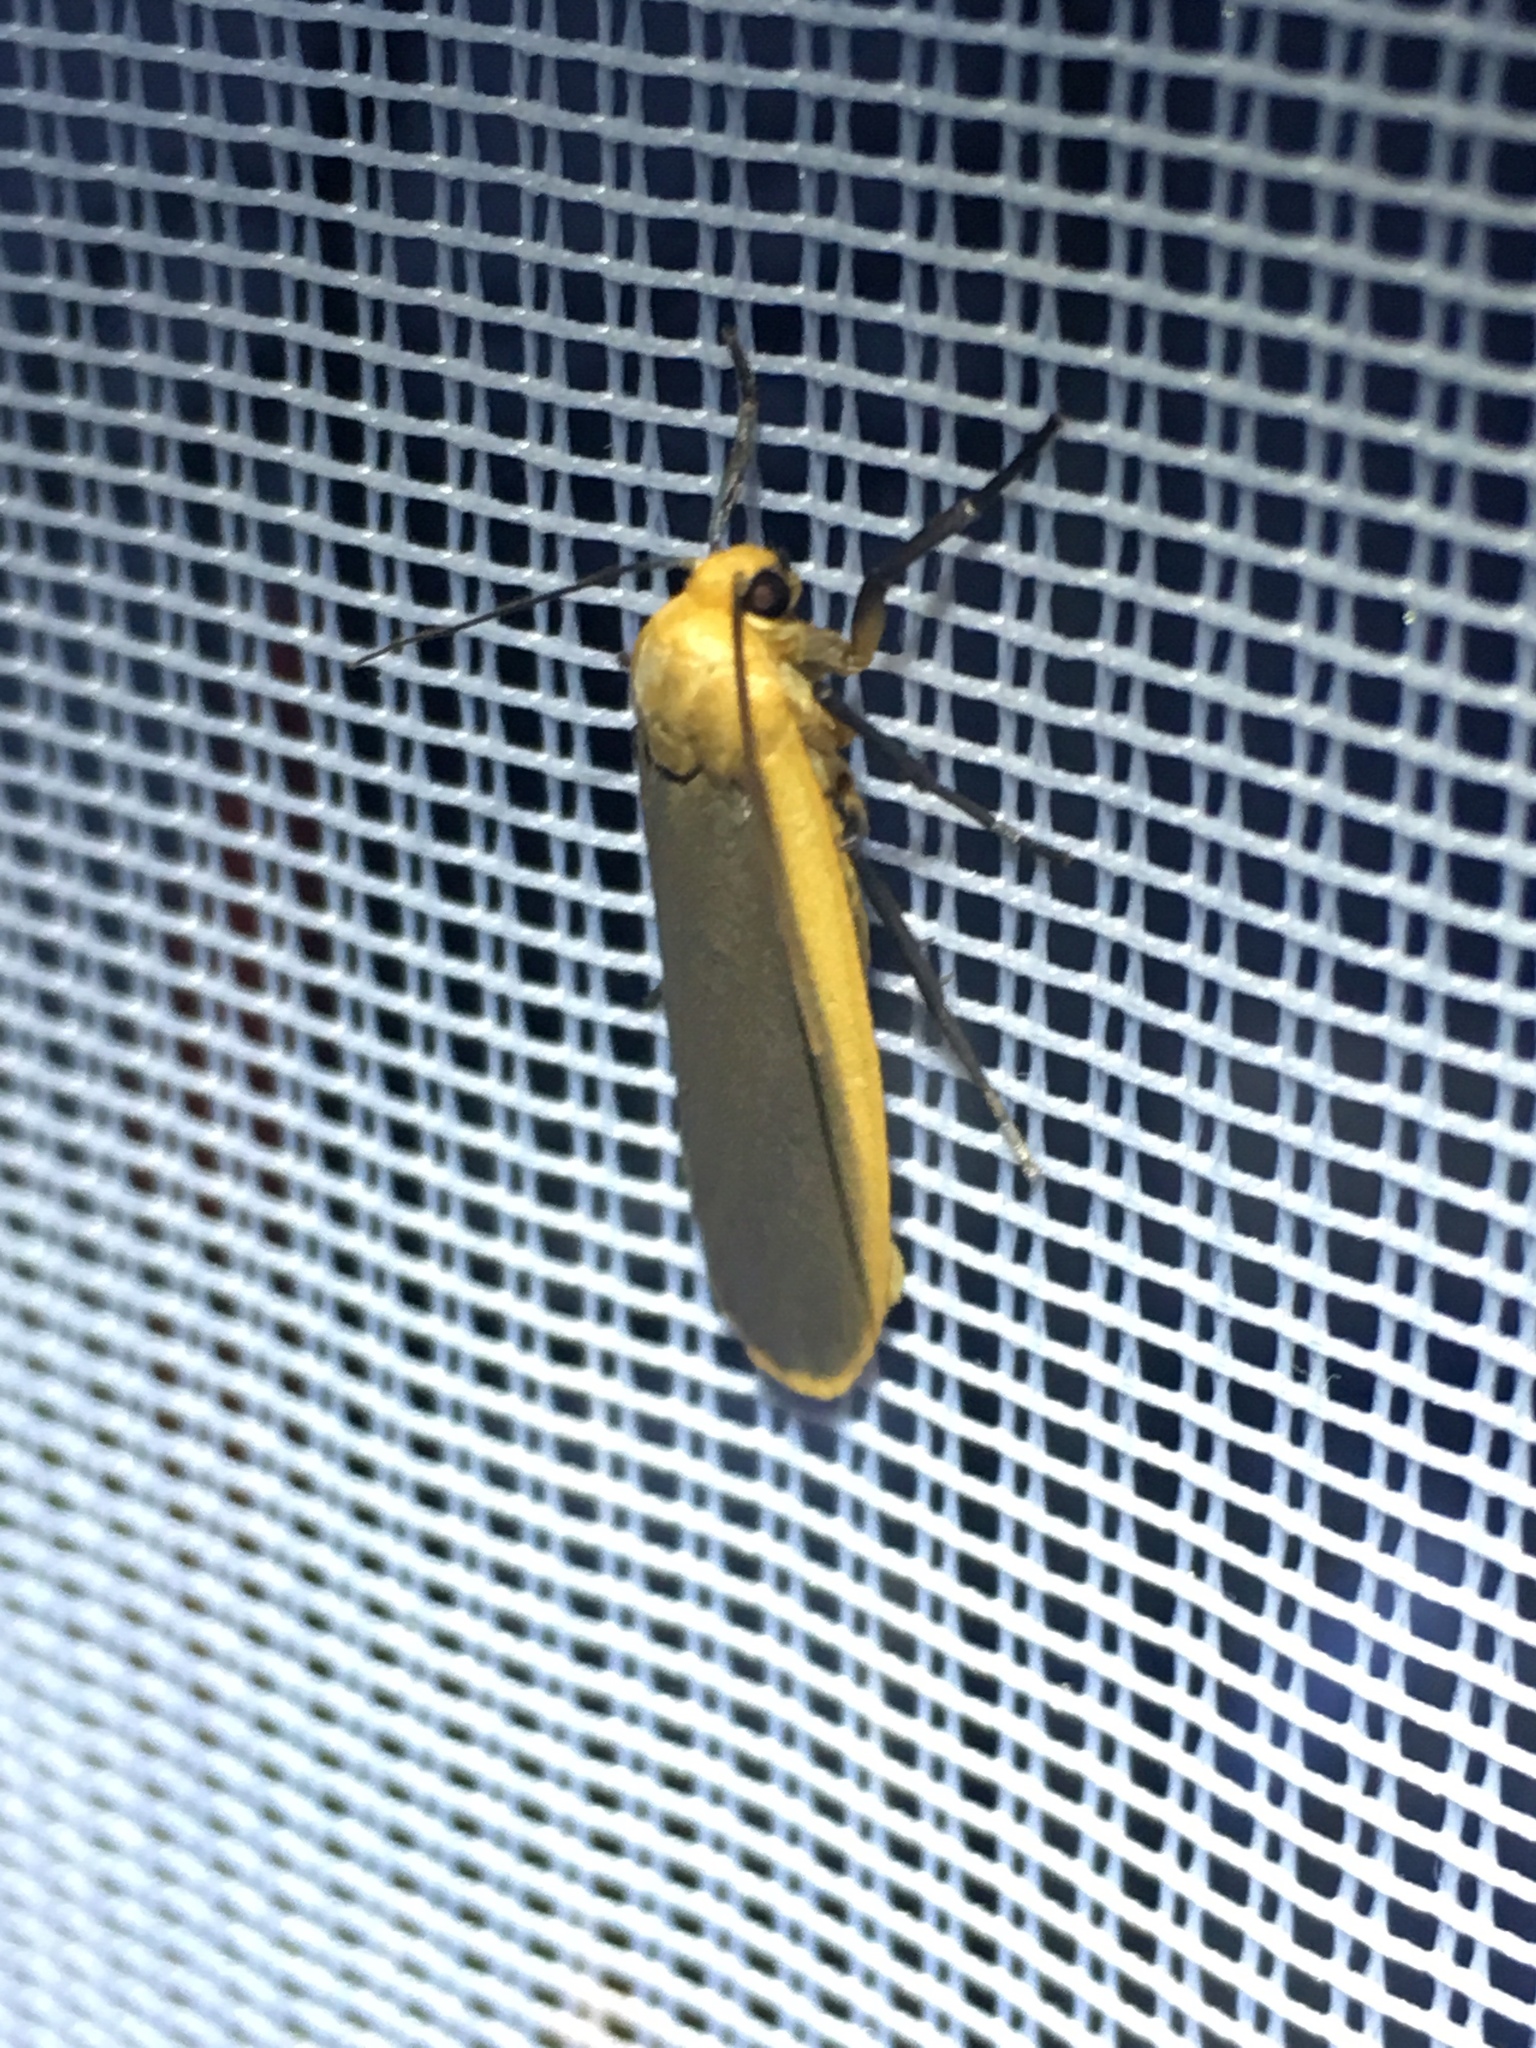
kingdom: Animalia
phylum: Arthropoda
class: Insecta
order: Lepidoptera
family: Erebidae
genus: Nyea
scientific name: Nyea lurideola
